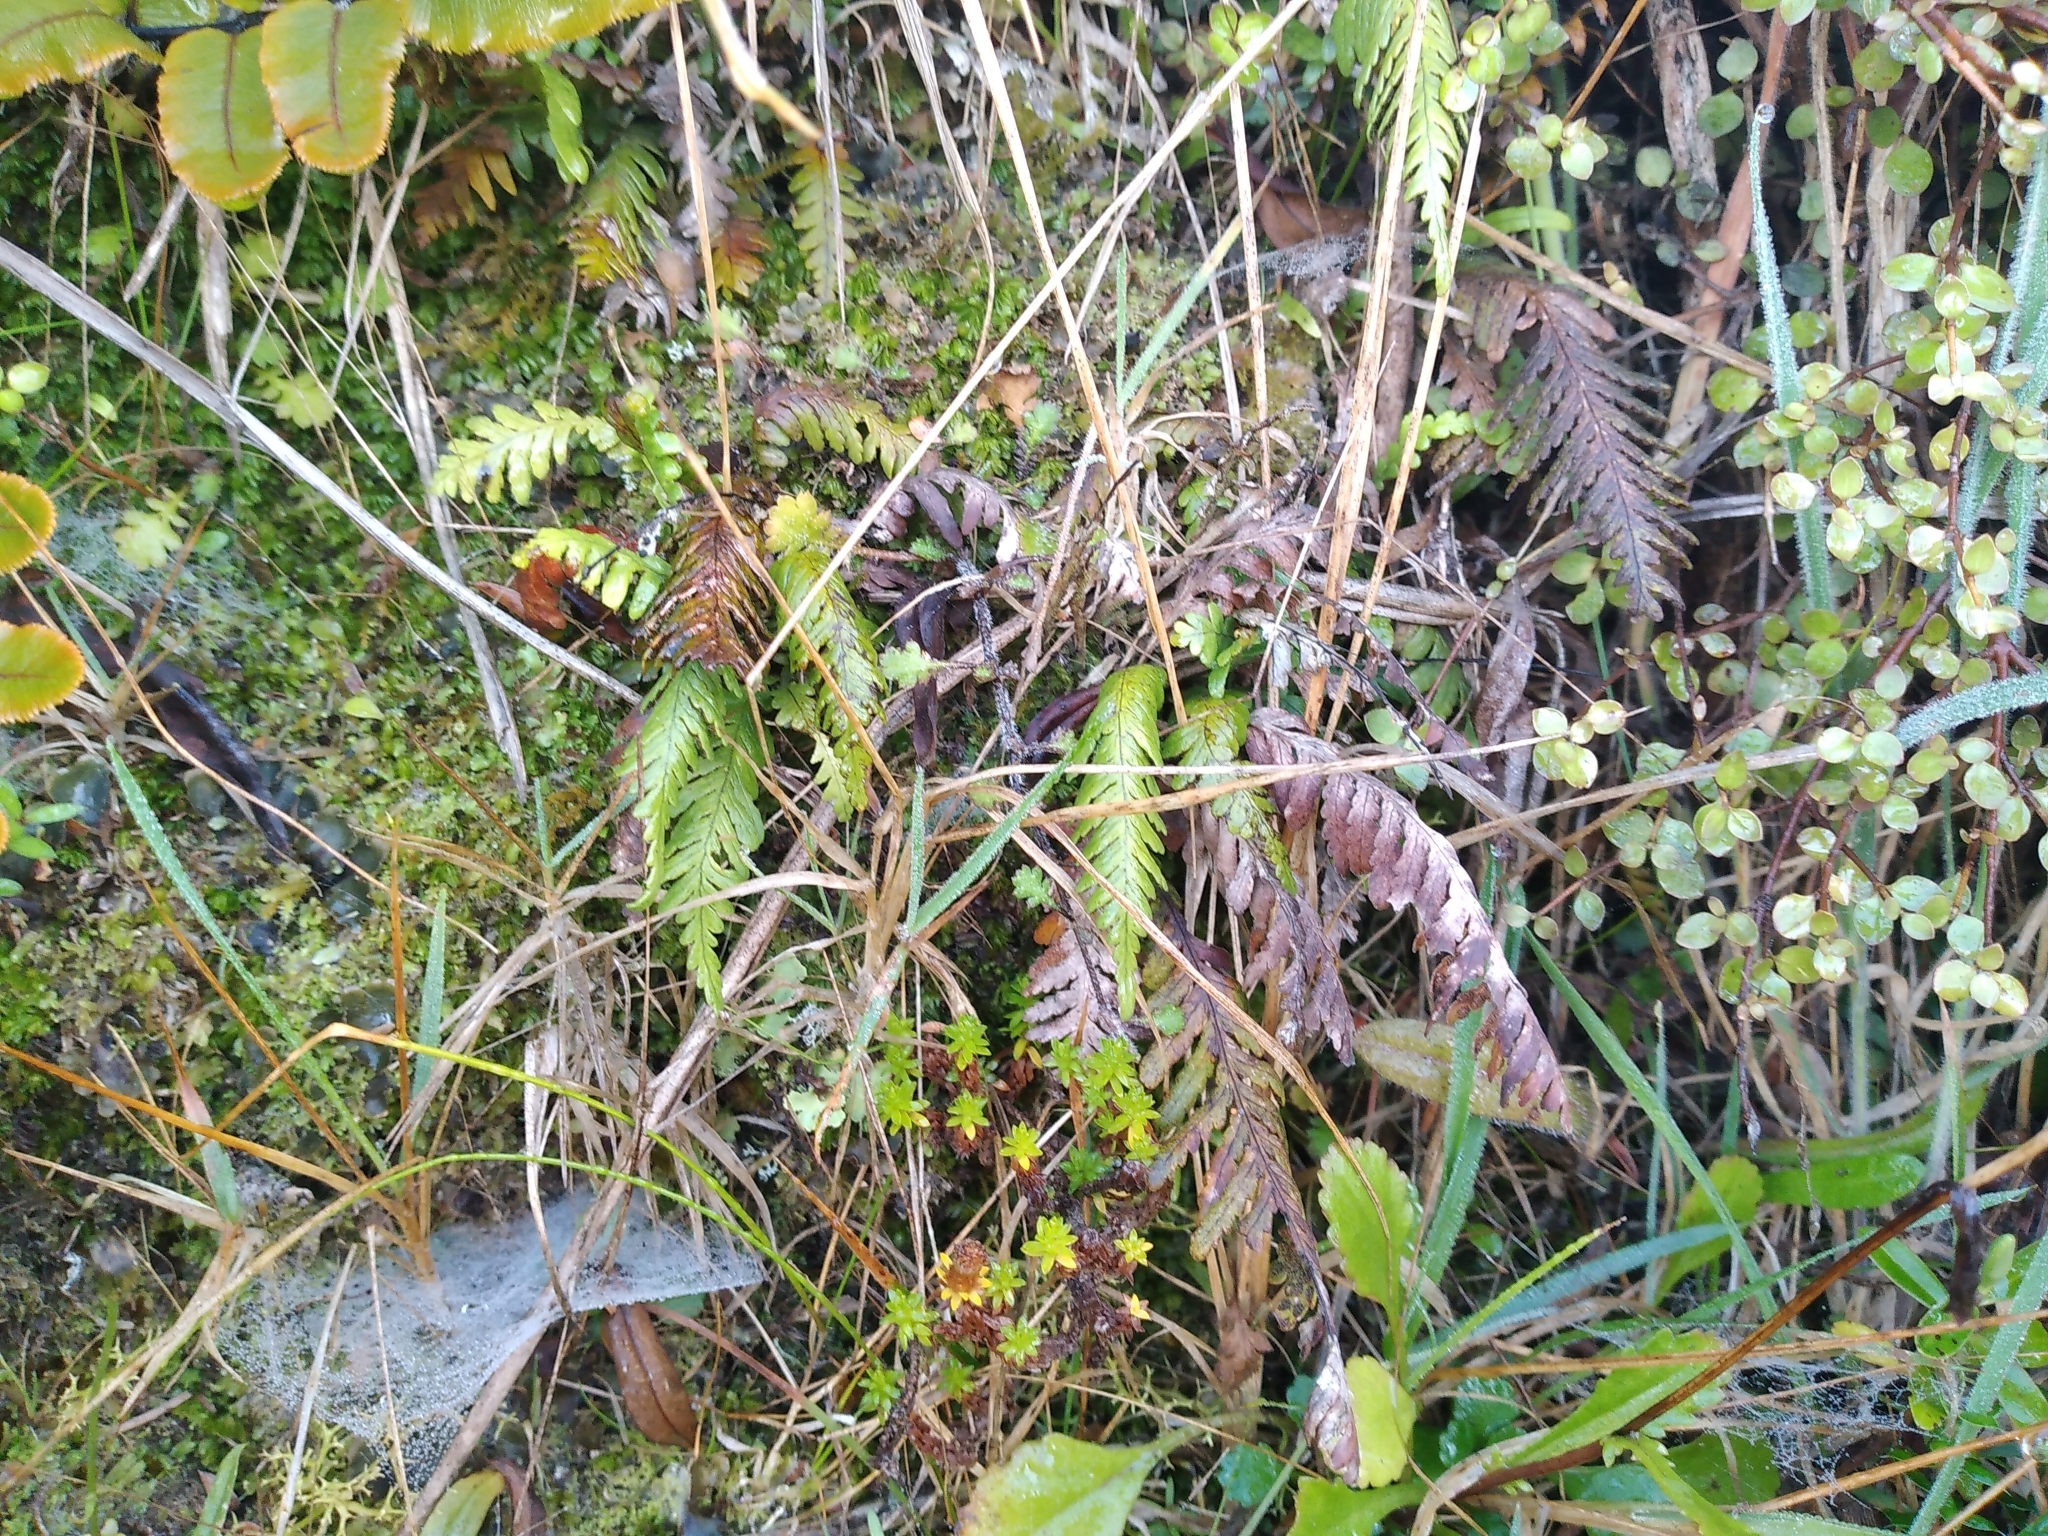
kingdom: Plantae
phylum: Tracheophyta
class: Polypodiopsida
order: Polypodiales
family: Polypodiaceae
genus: Notogrammitis
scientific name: Notogrammitis heterophylla
